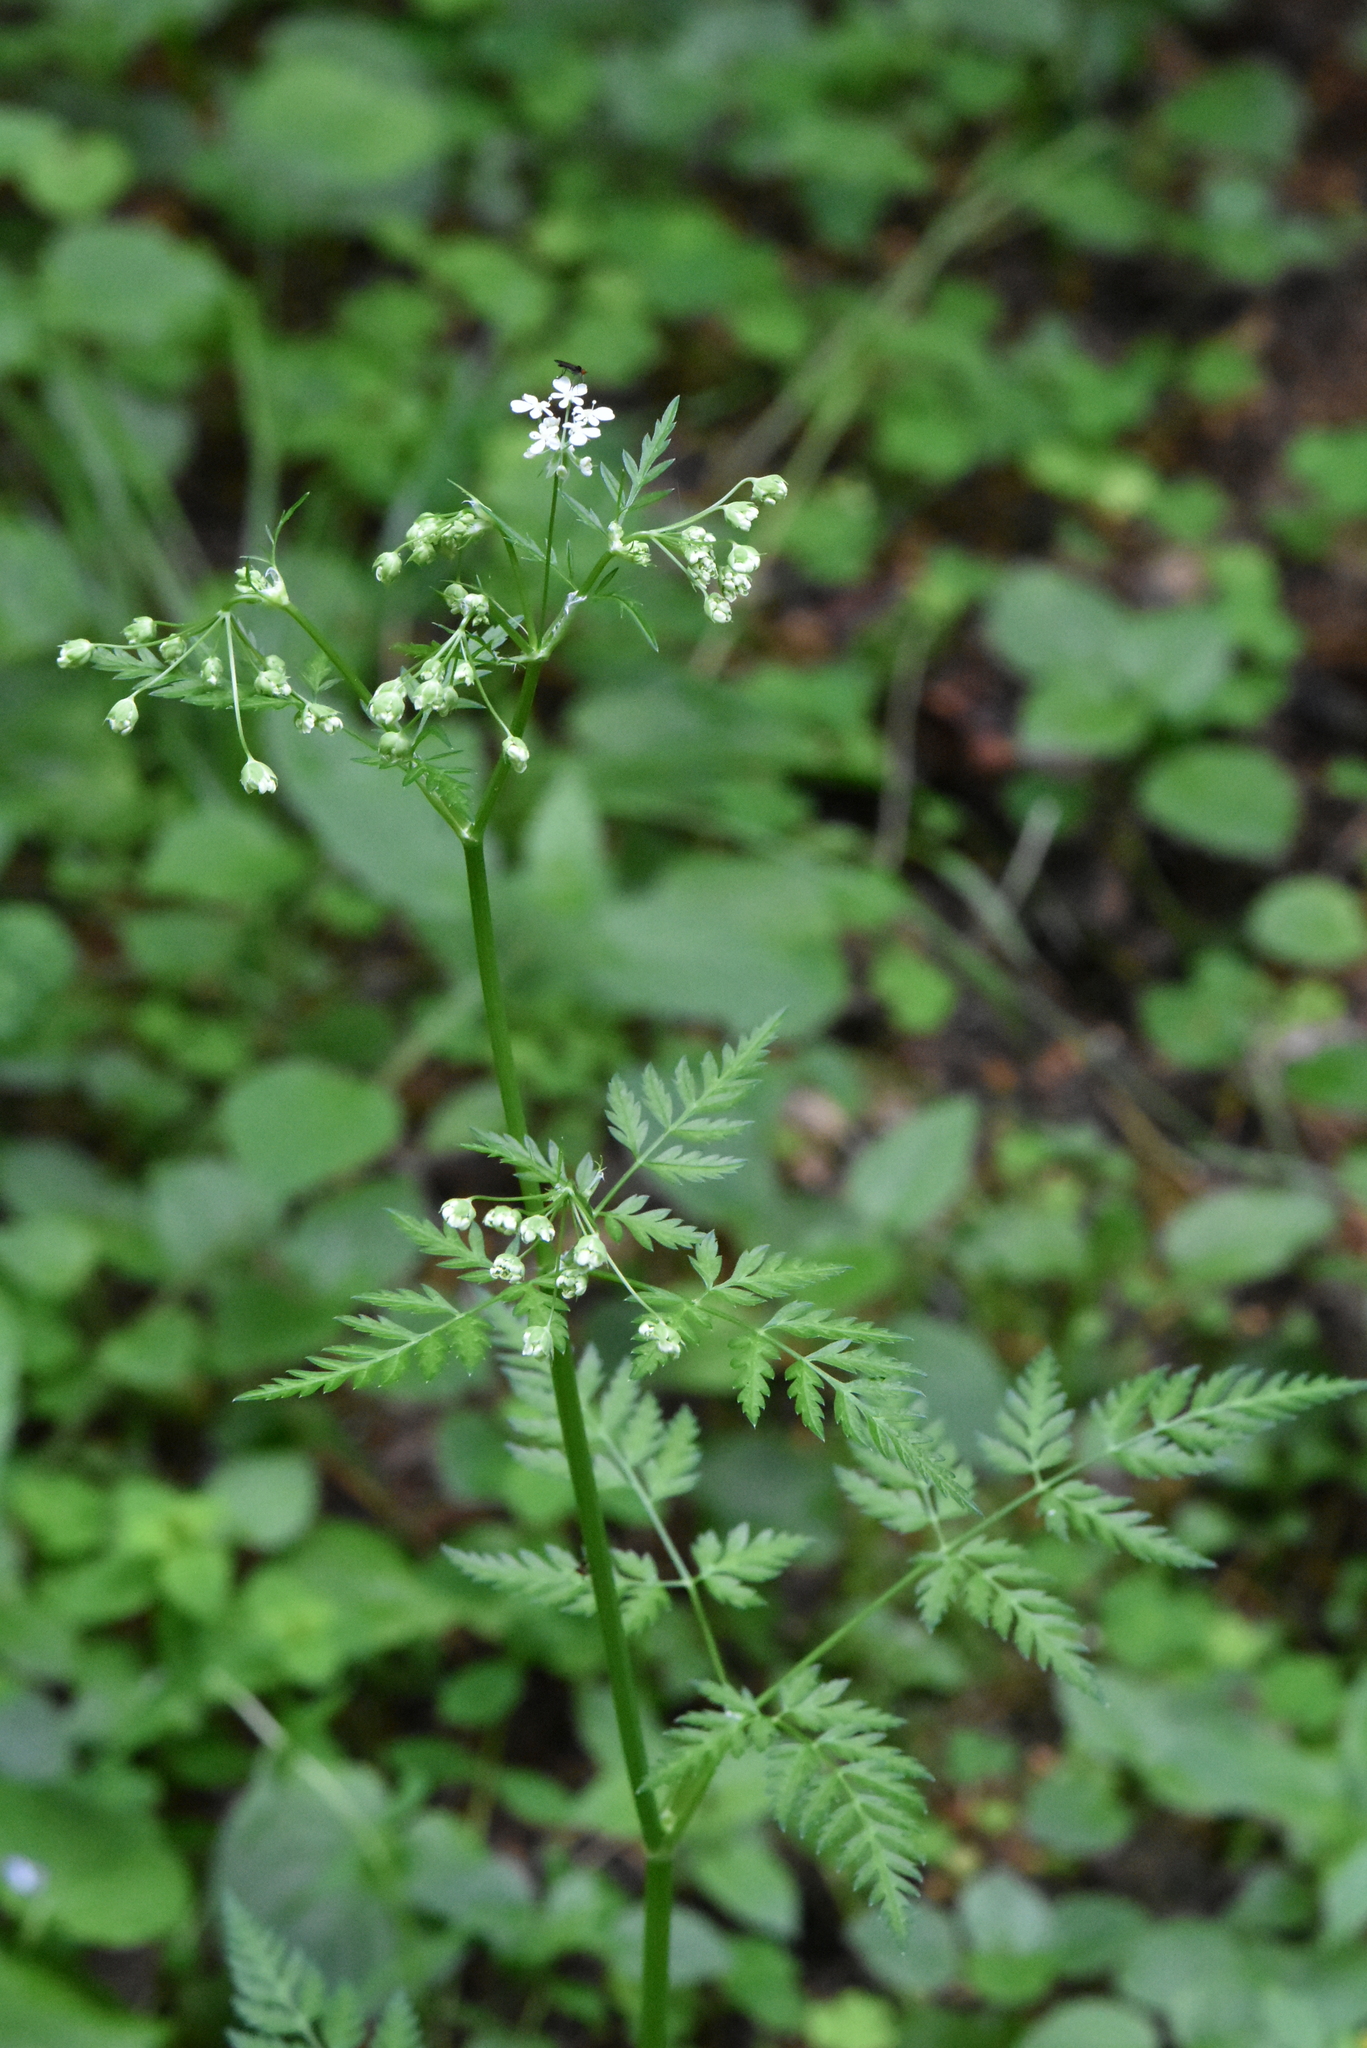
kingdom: Plantae
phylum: Tracheophyta
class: Magnoliopsida
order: Apiales
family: Apiaceae
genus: Anthriscus
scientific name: Anthriscus sylvestris
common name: Cow parsley
